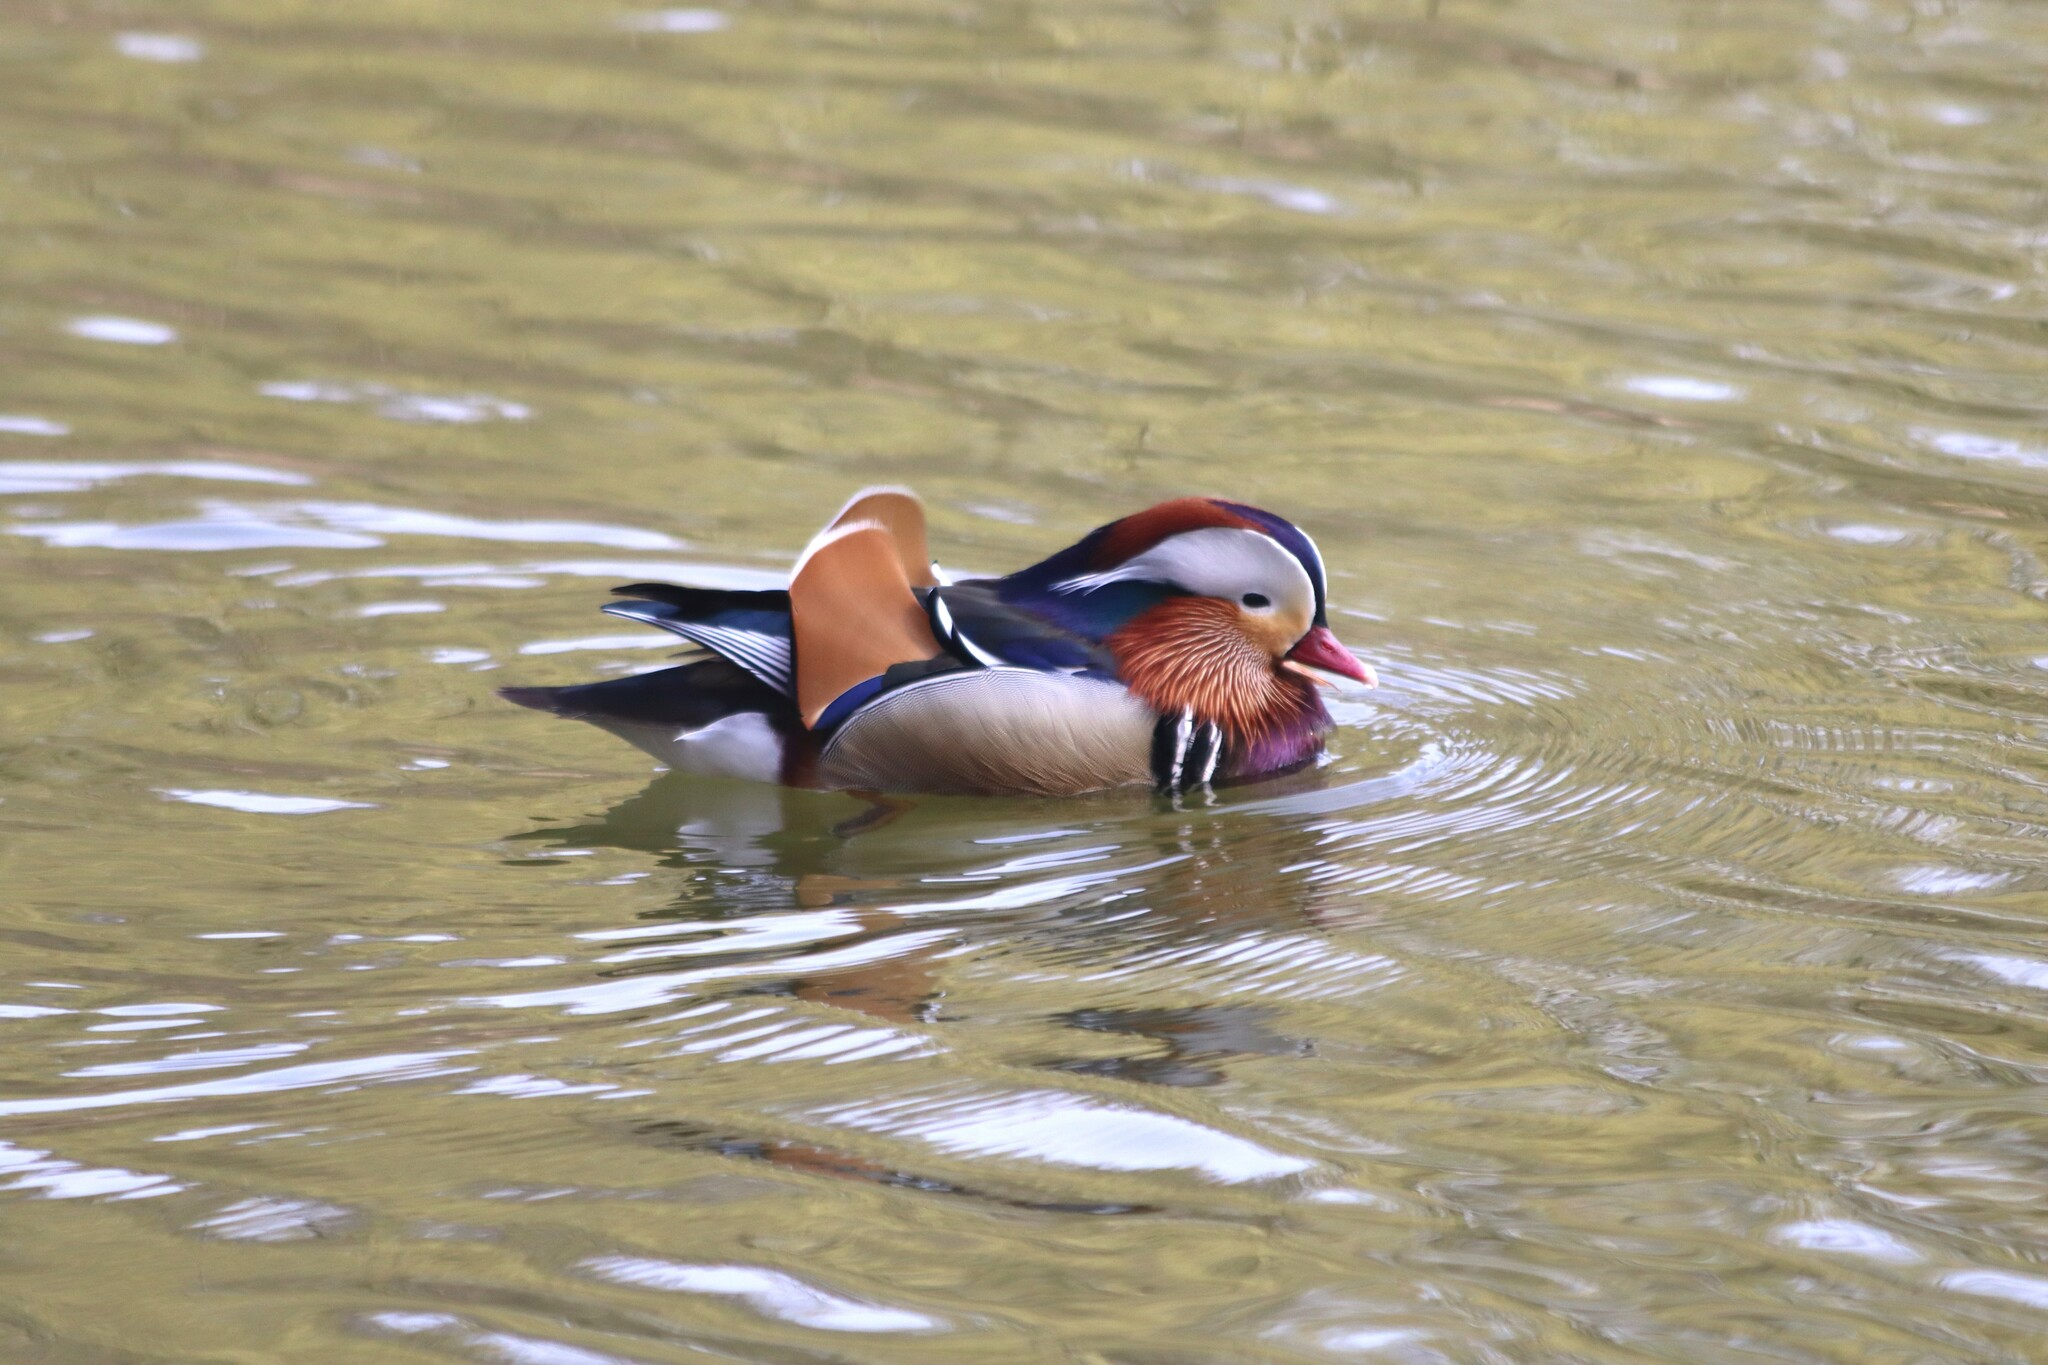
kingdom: Animalia
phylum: Chordata
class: Aves
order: Anseriformes
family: Anatidae
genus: Aix
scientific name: Aix galericulata
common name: Mandarin duck
